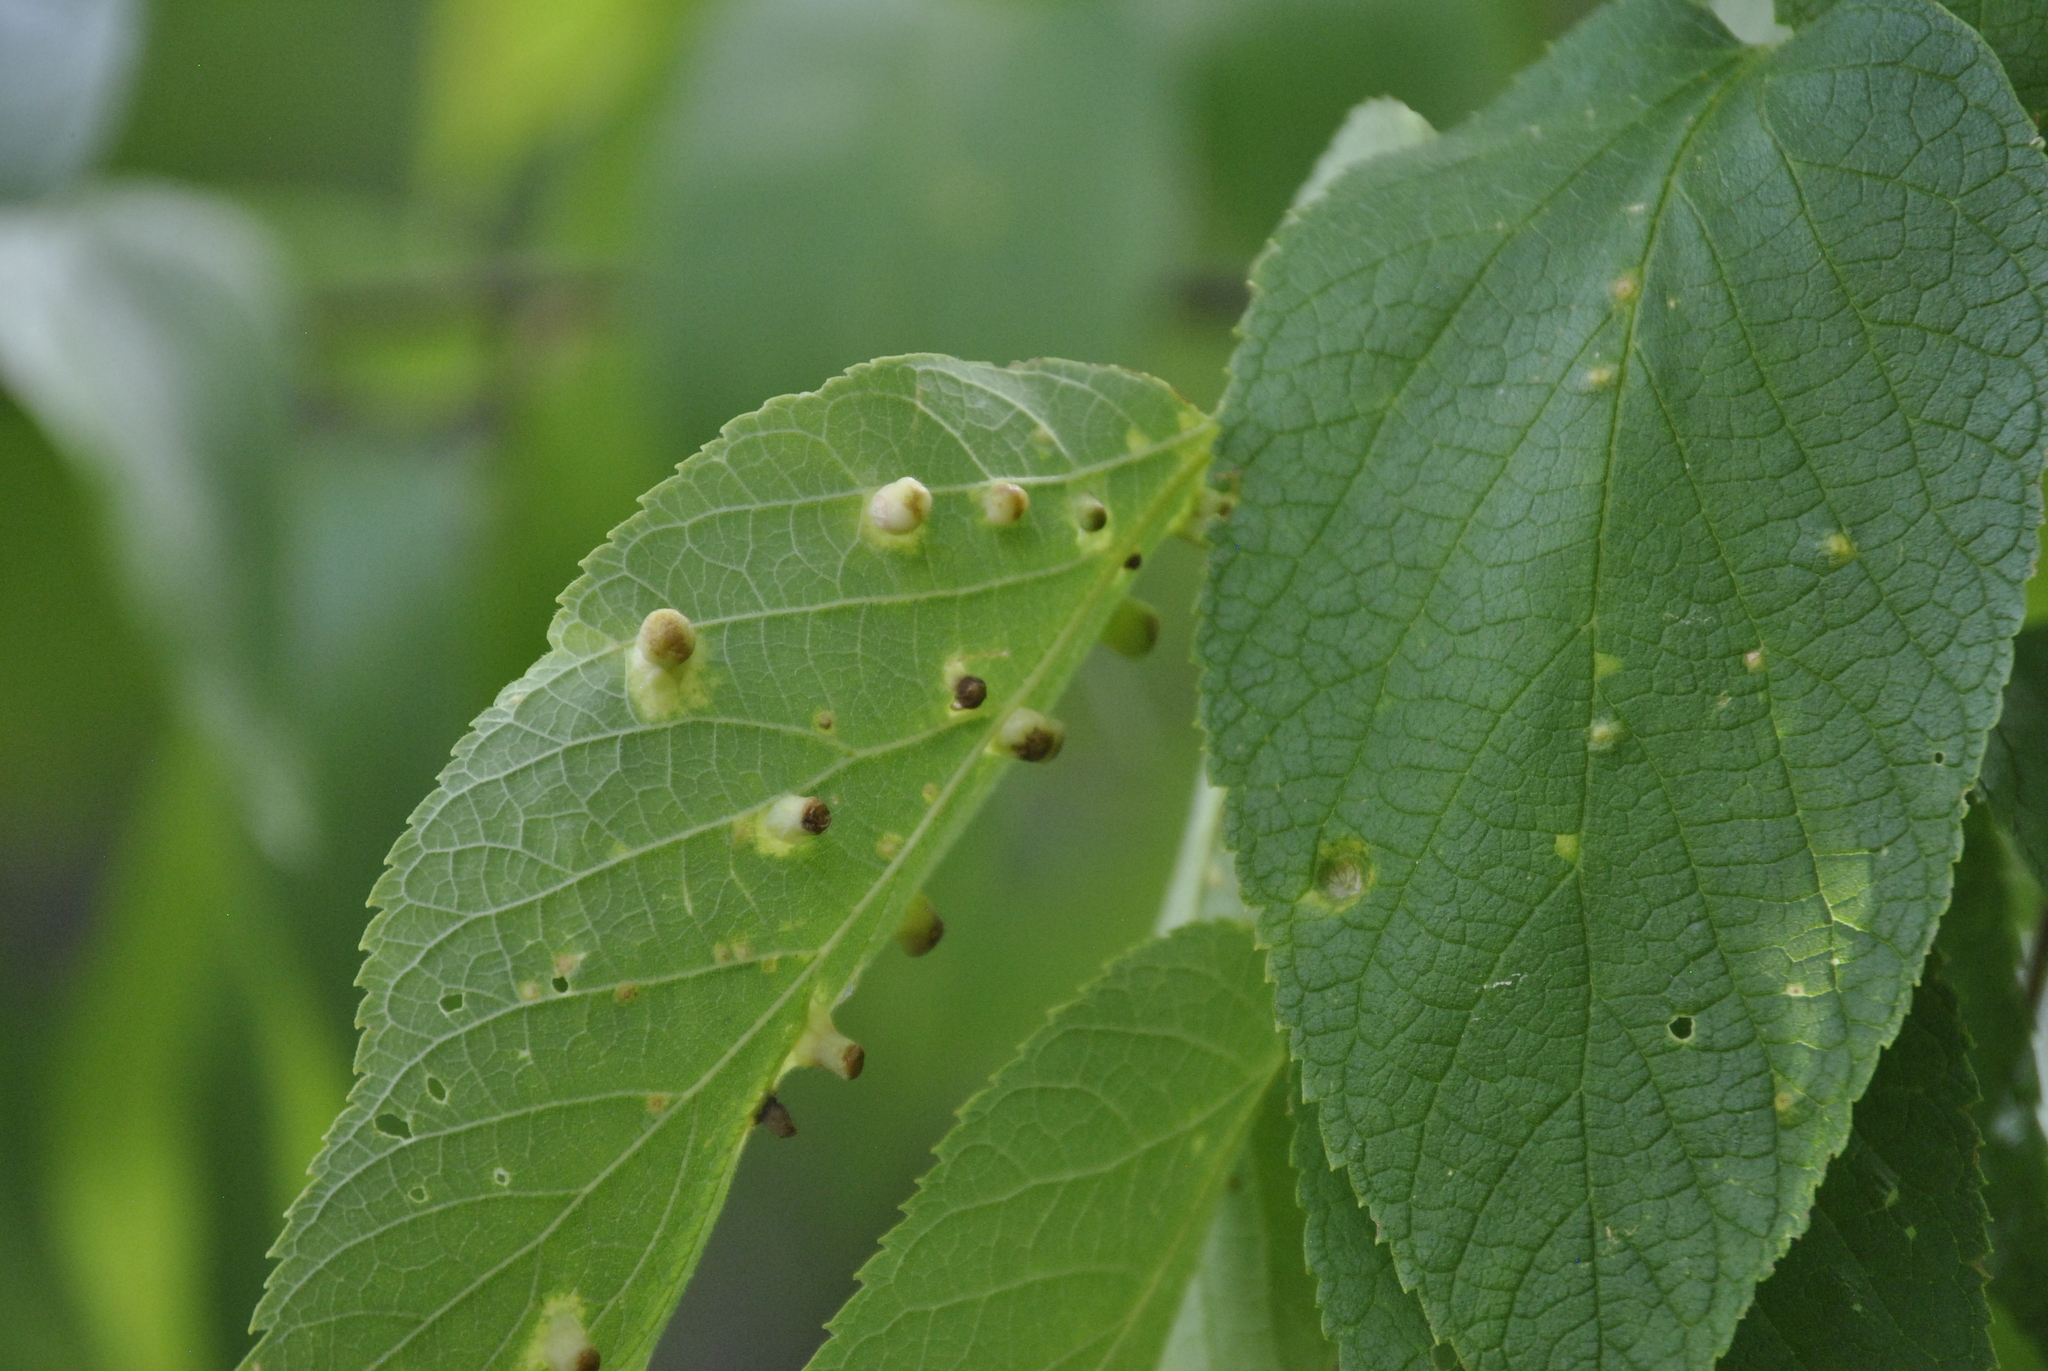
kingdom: Animalia
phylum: Arthropoda
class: Insecta
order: Hemiptera
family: Aphalaridae
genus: Pachypsylla
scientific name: Pachypsylla celtidismamma
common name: Hackberry nipplegall psyllid
